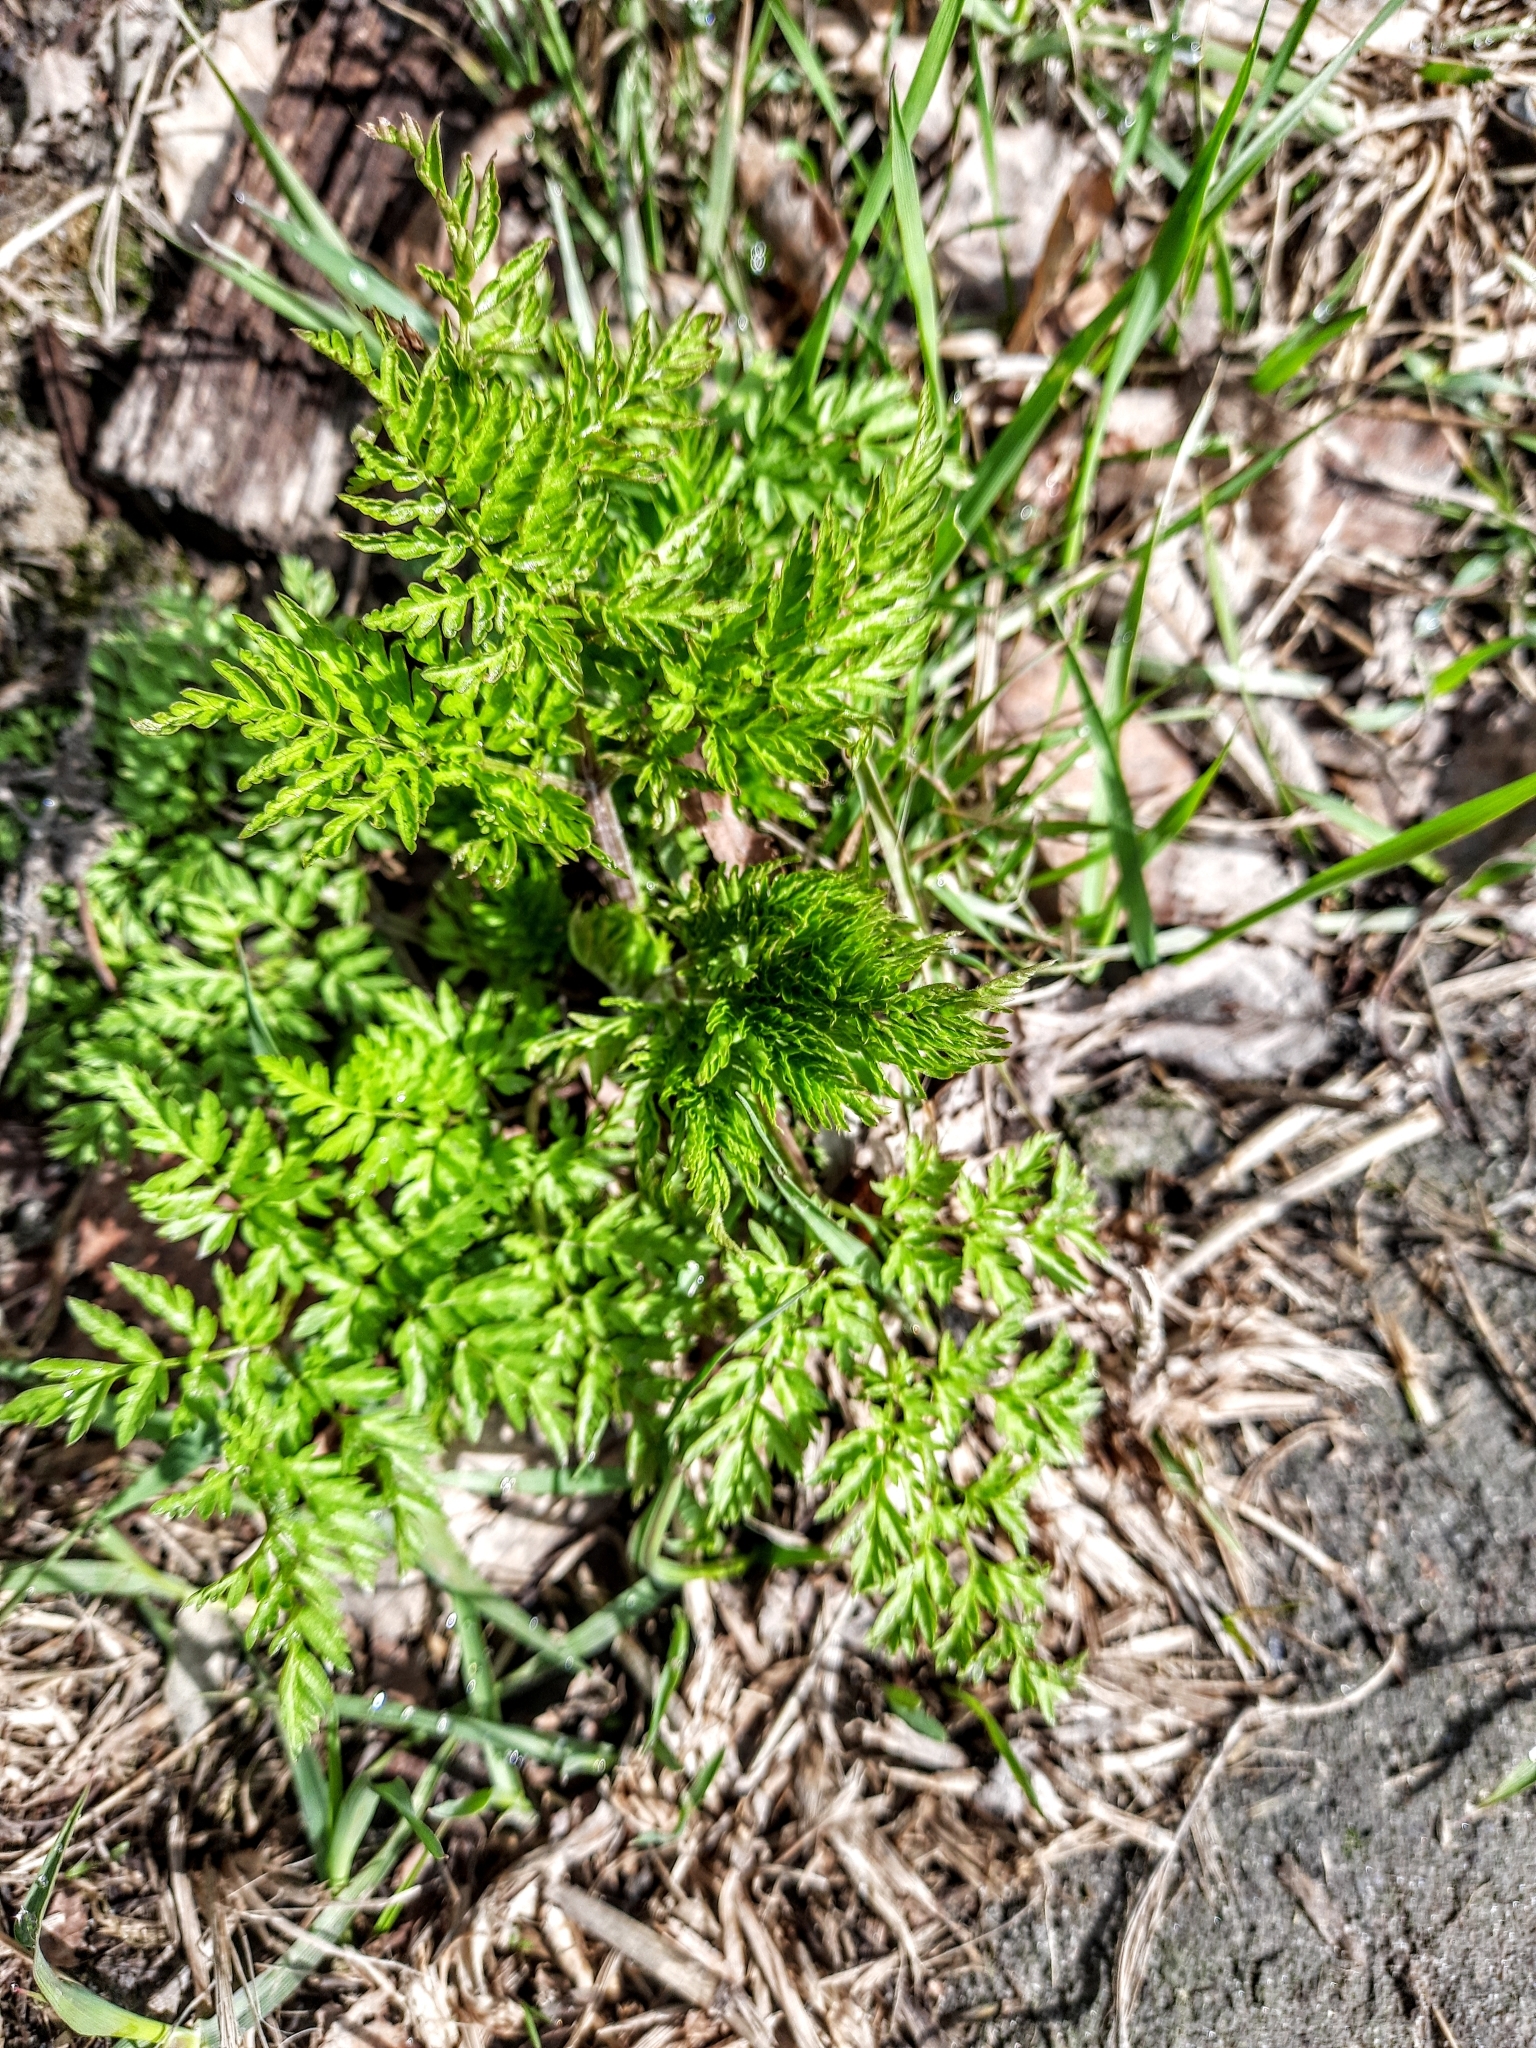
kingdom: Plantae
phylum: Tracheophyta
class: Magnoliopsida
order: Apiales
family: Apiaceae
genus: Anthriscus
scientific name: Anthriscus sylvestris
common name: Cow parsley
